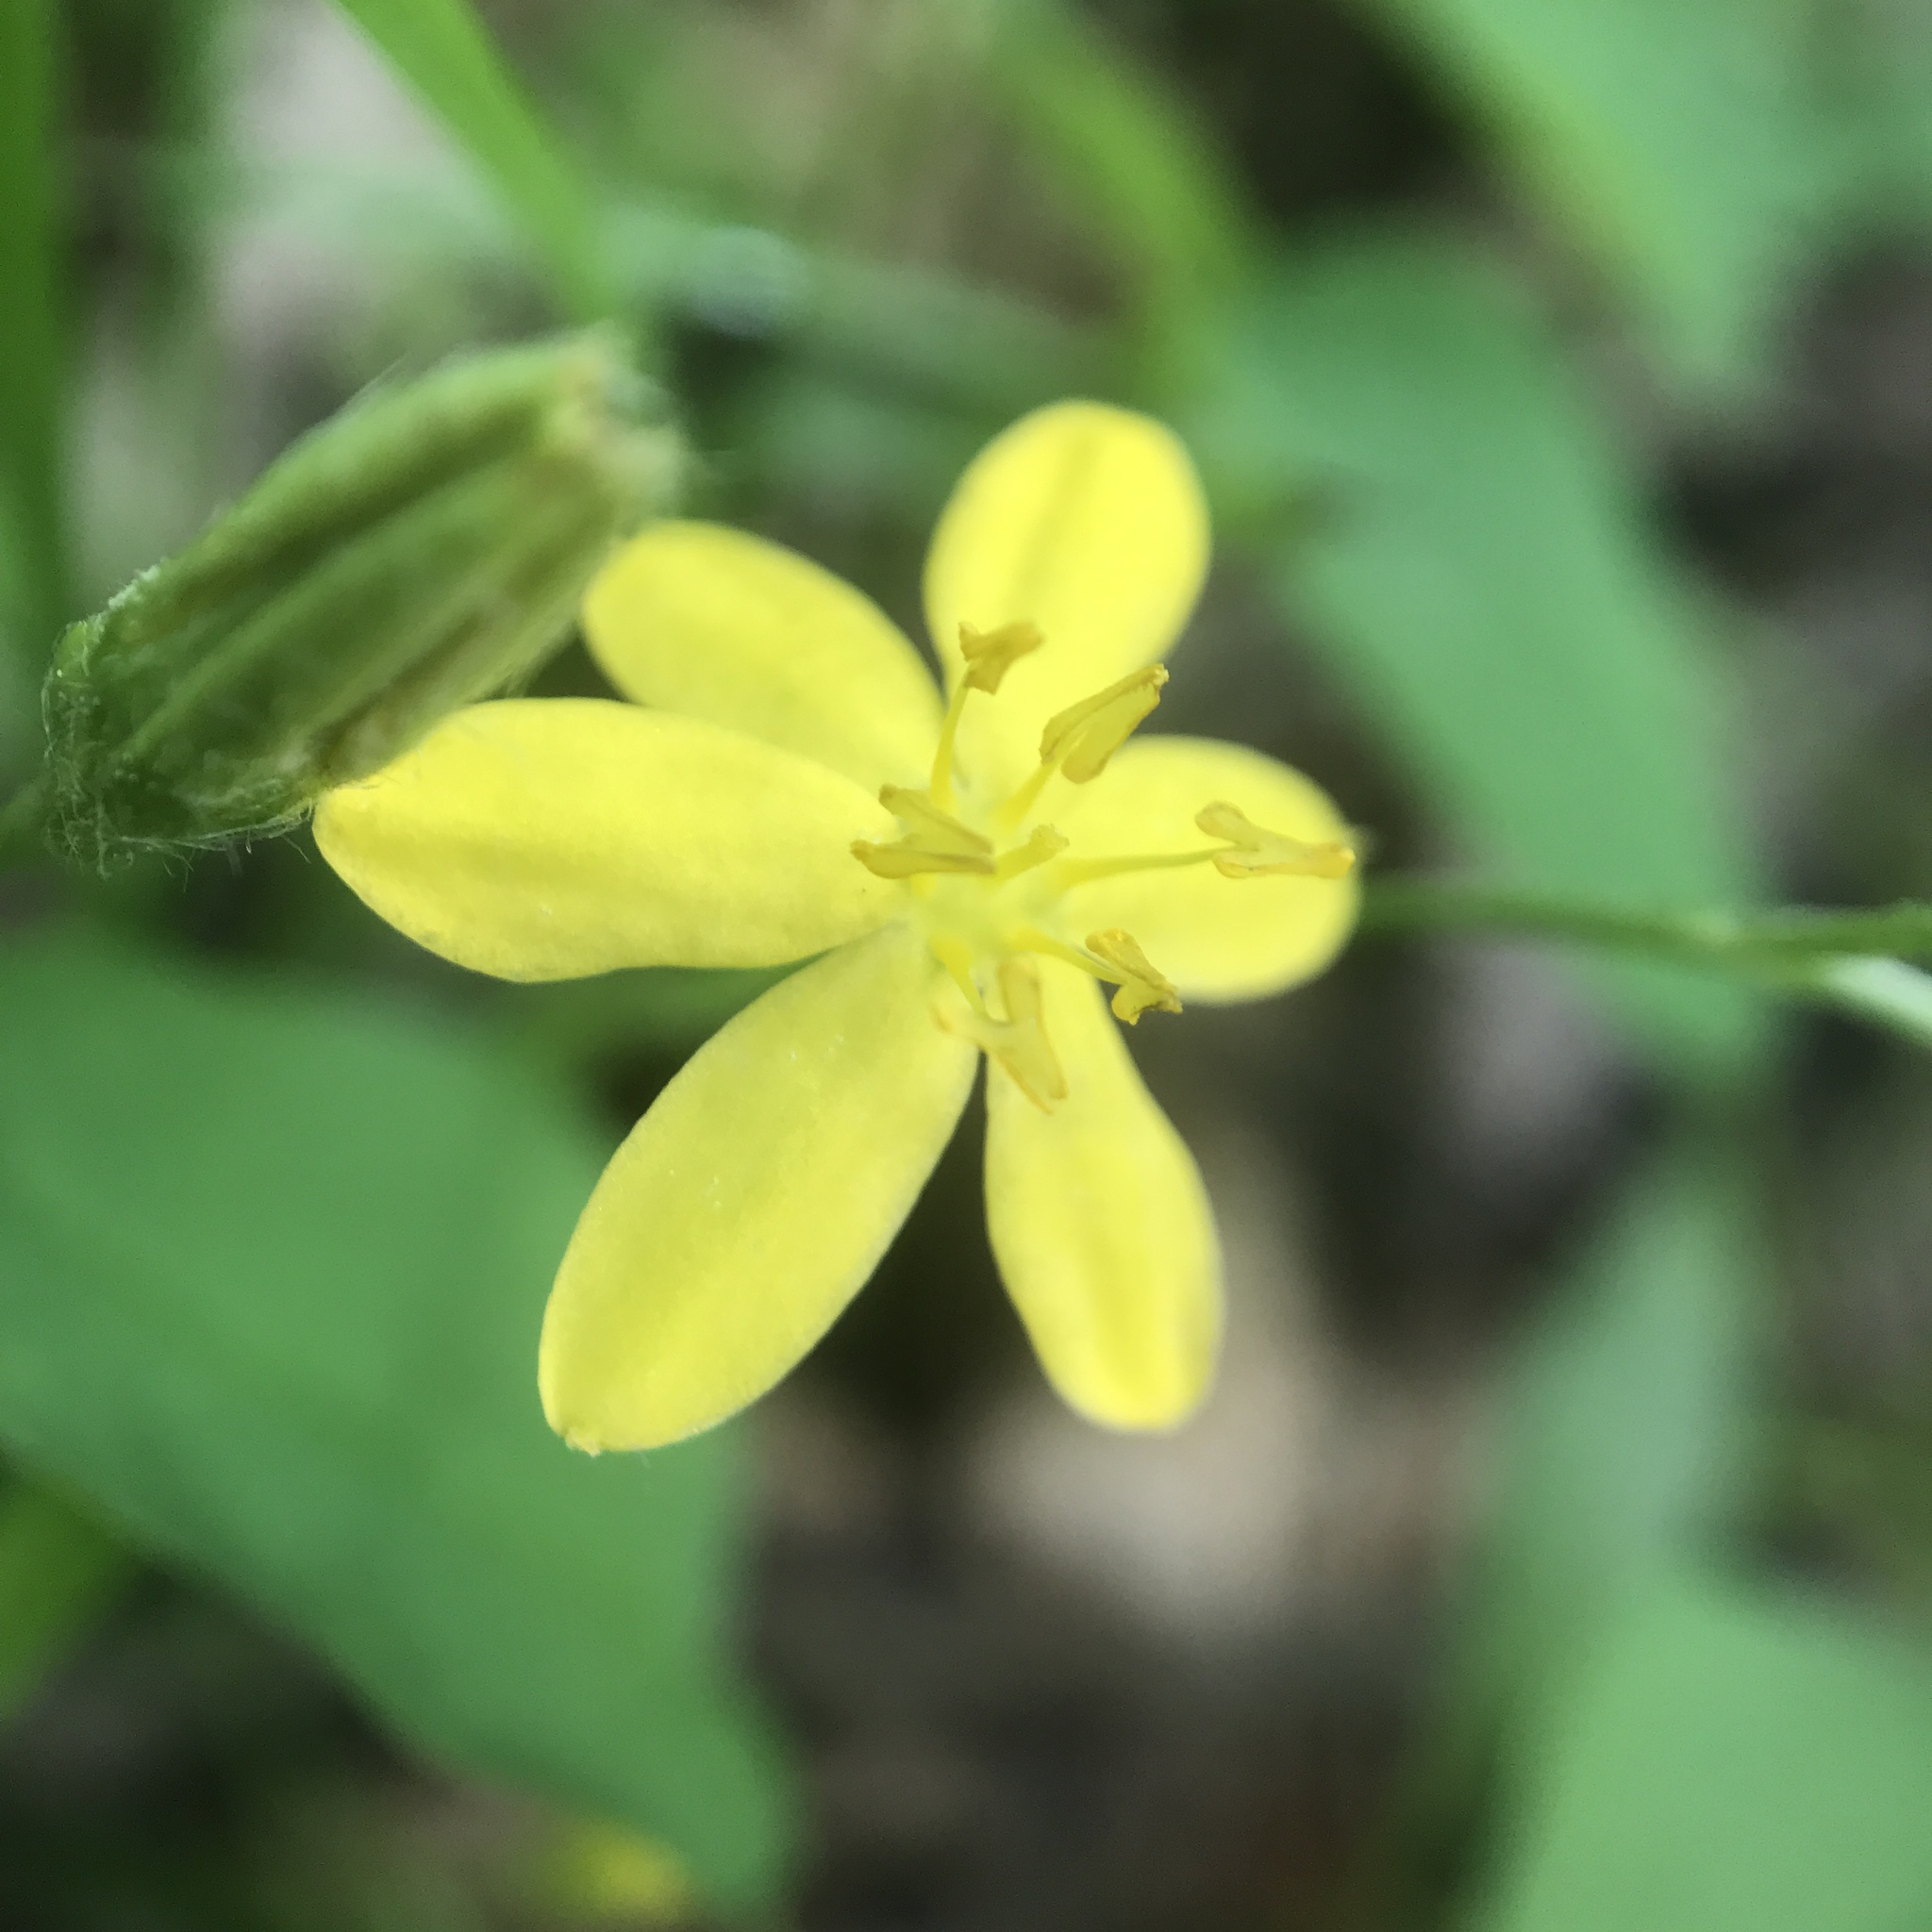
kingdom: Plantae
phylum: Tracheophyta
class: Liliopsida
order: Asparagales
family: Hypoxidaceae
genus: Hypoxis
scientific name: Hypoxis hirsuta
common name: Common goldstar
